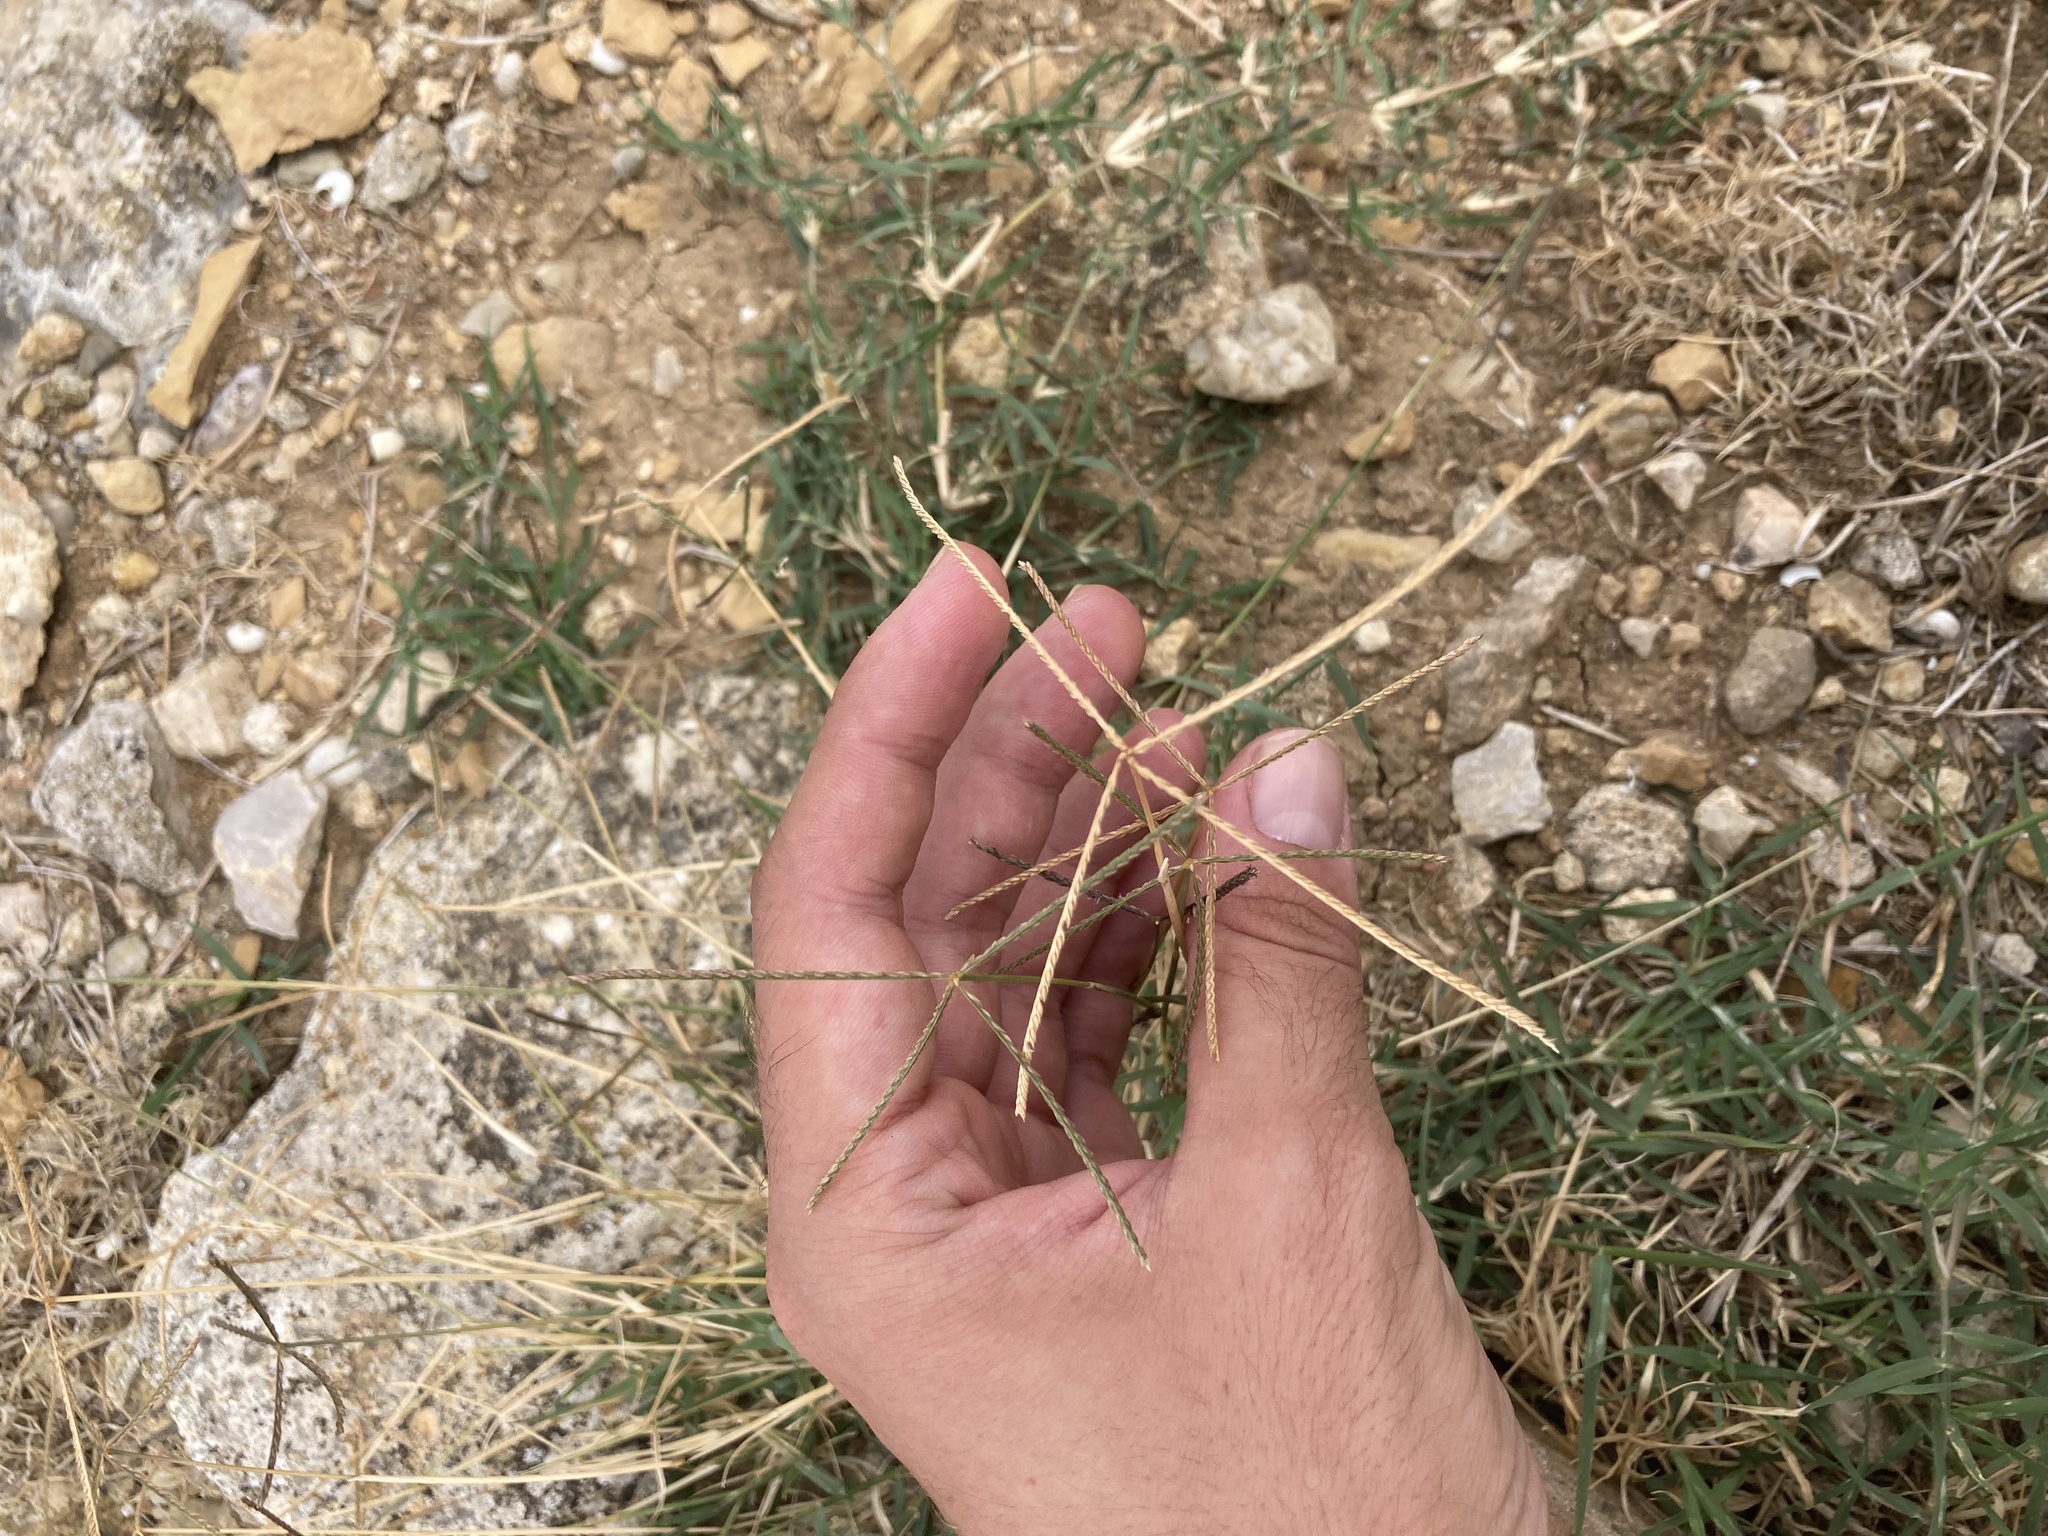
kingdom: Plantae
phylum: Tracheophyta
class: Liliopsida
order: Poales
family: Poaceae
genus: Cynodon
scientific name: Cynodon dactylon
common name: Bermuda grass
